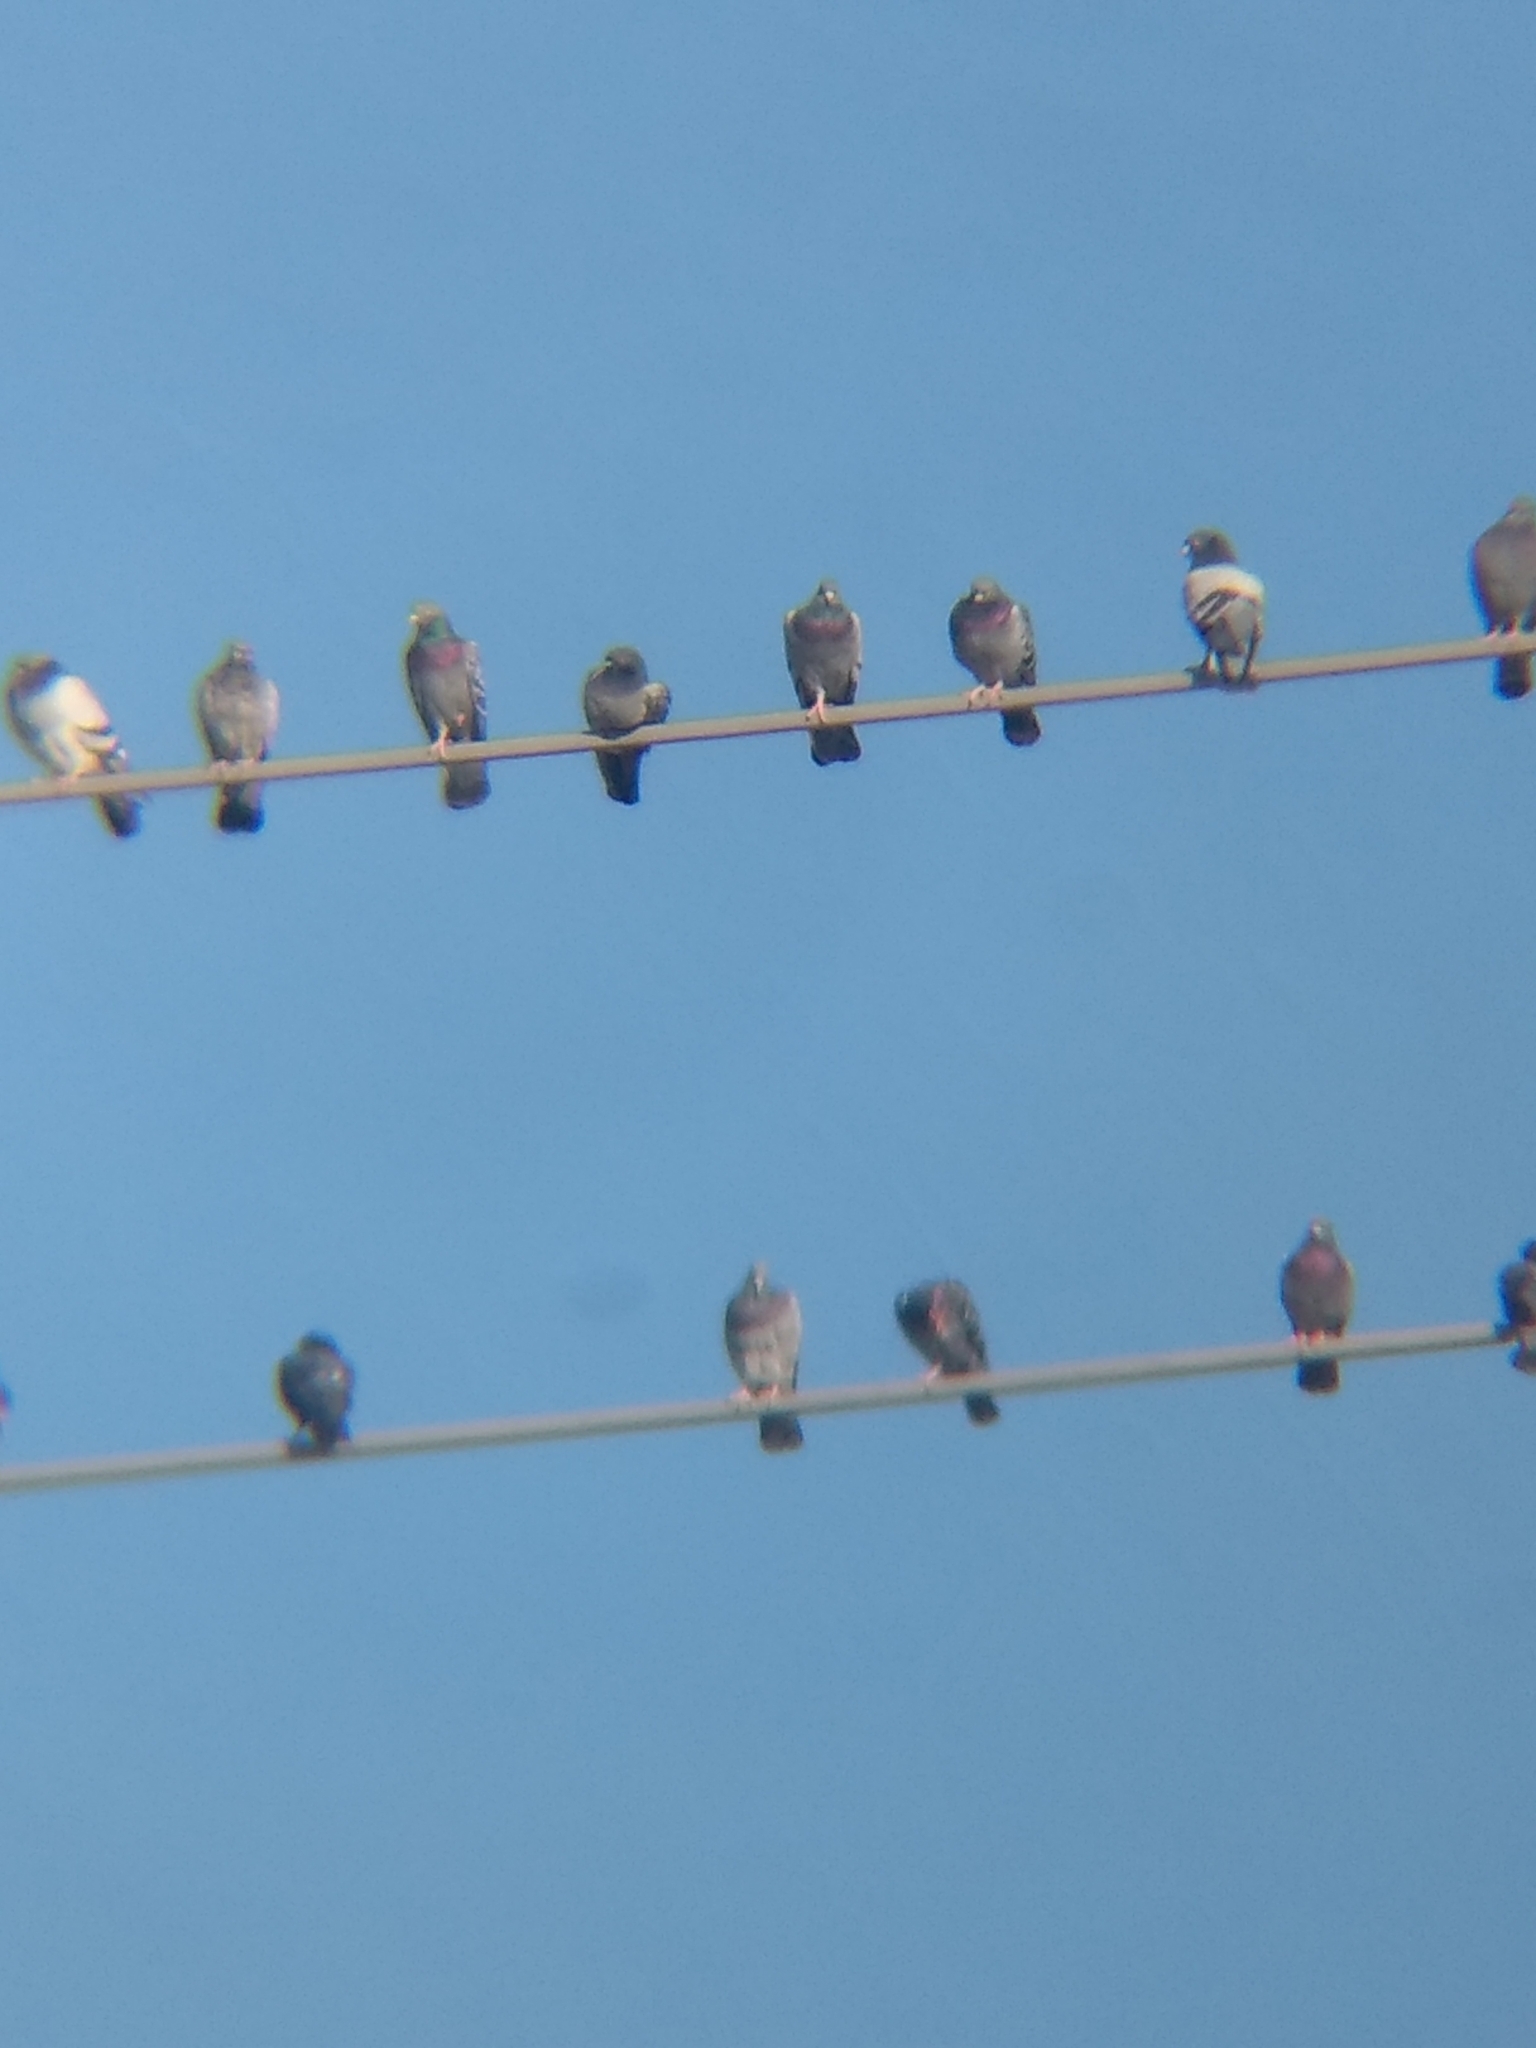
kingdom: Animalia
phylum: Chordata
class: Aves
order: Columbiformes
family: Columbidae
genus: Columba
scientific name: Columba livia
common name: Rock pigeon
